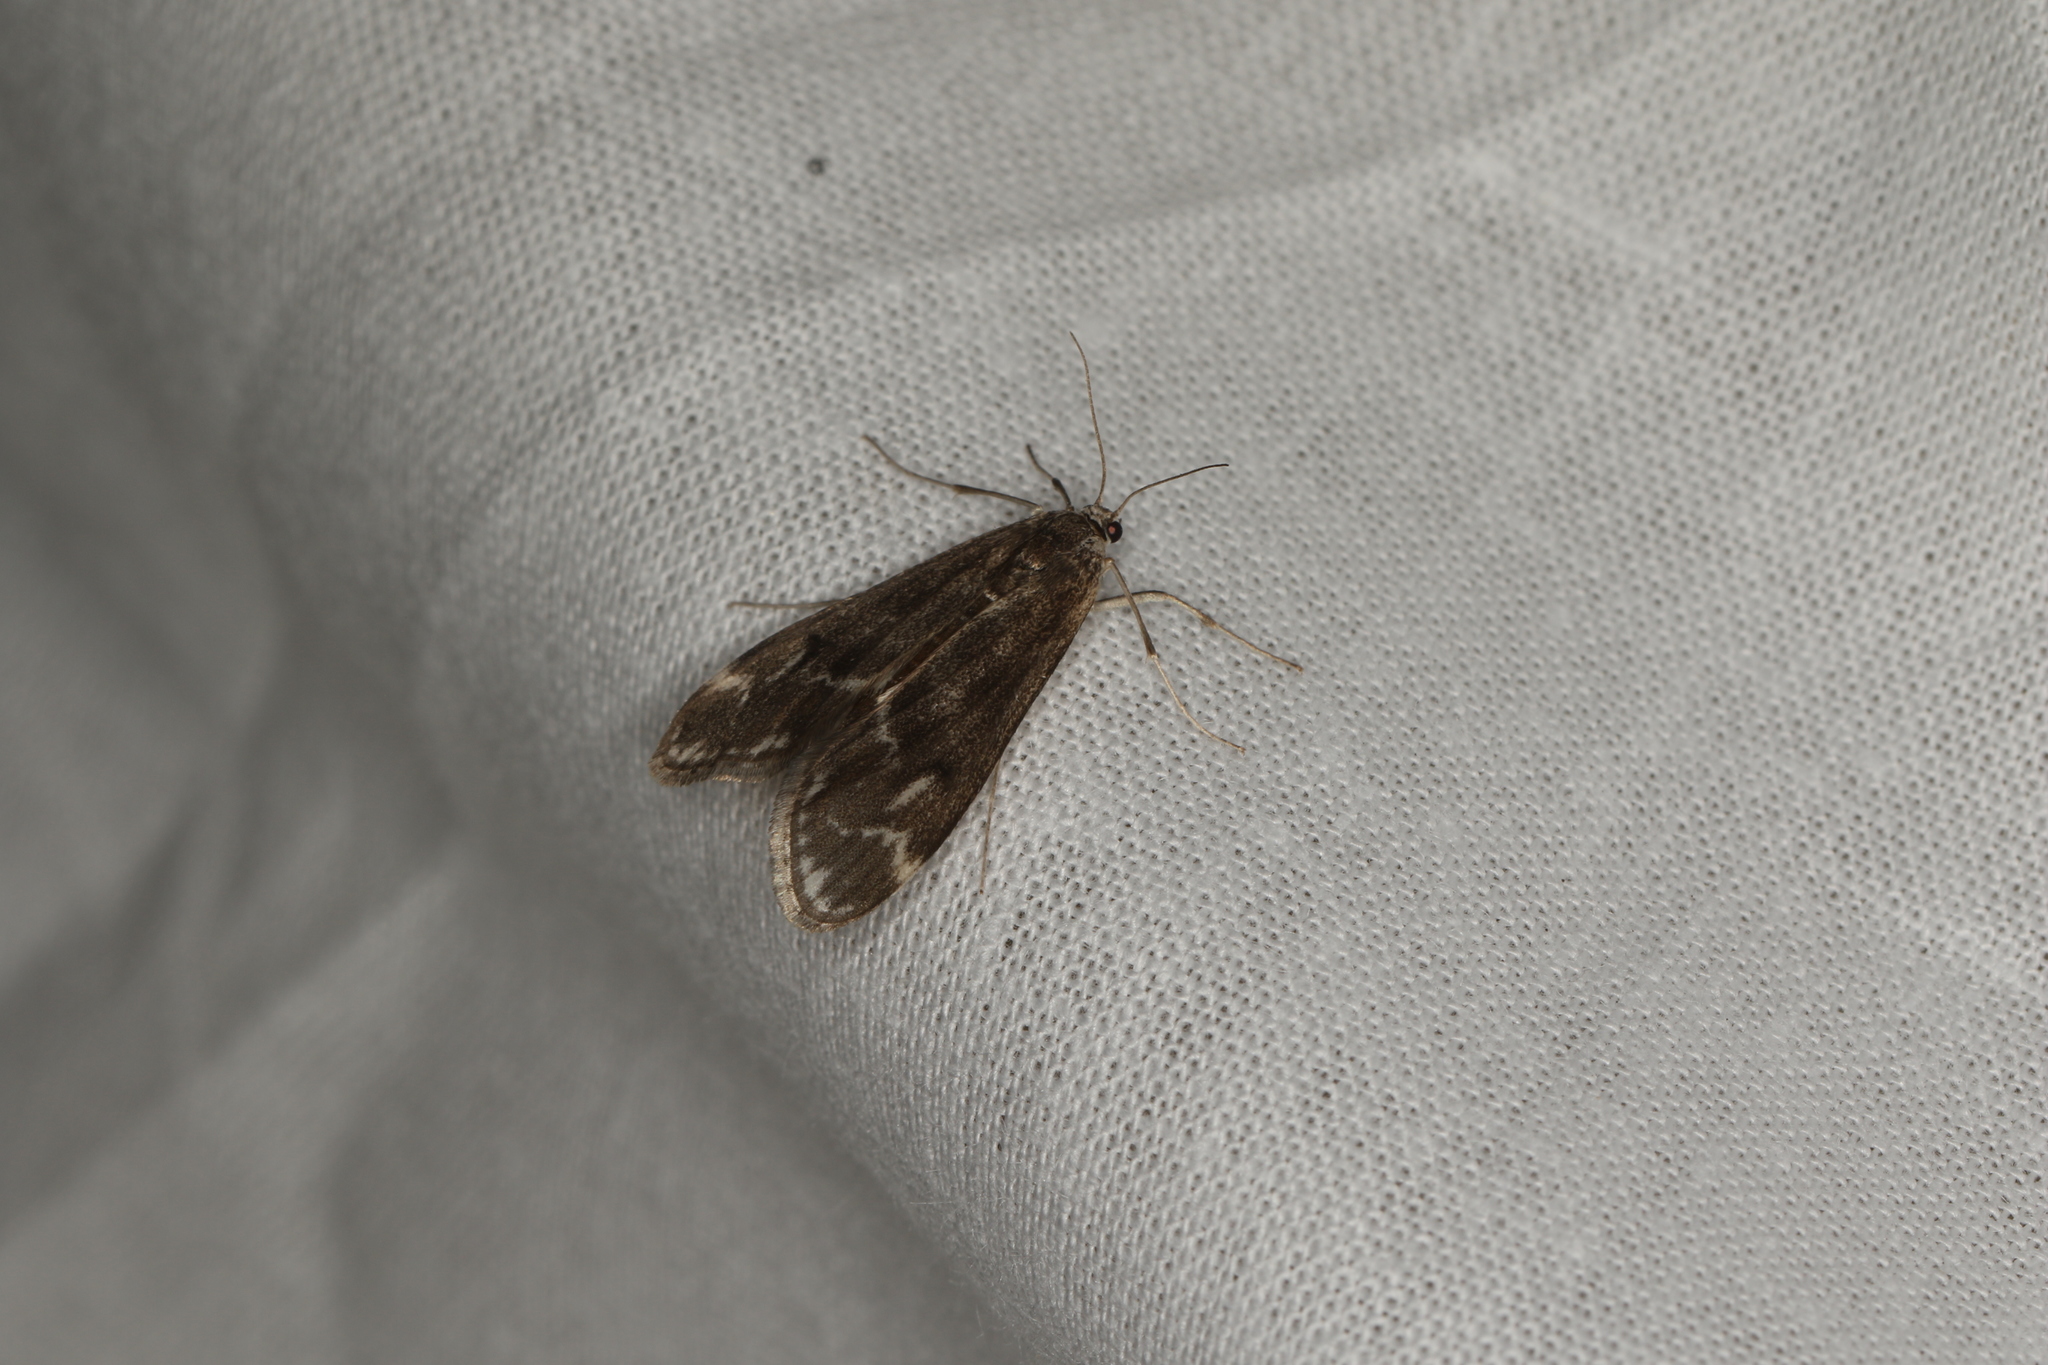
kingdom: Animalia
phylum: Arthropoda
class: Insecta
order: Lepidoptera
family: Crambidae
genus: Hygraula
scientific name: Hygraula nitens
